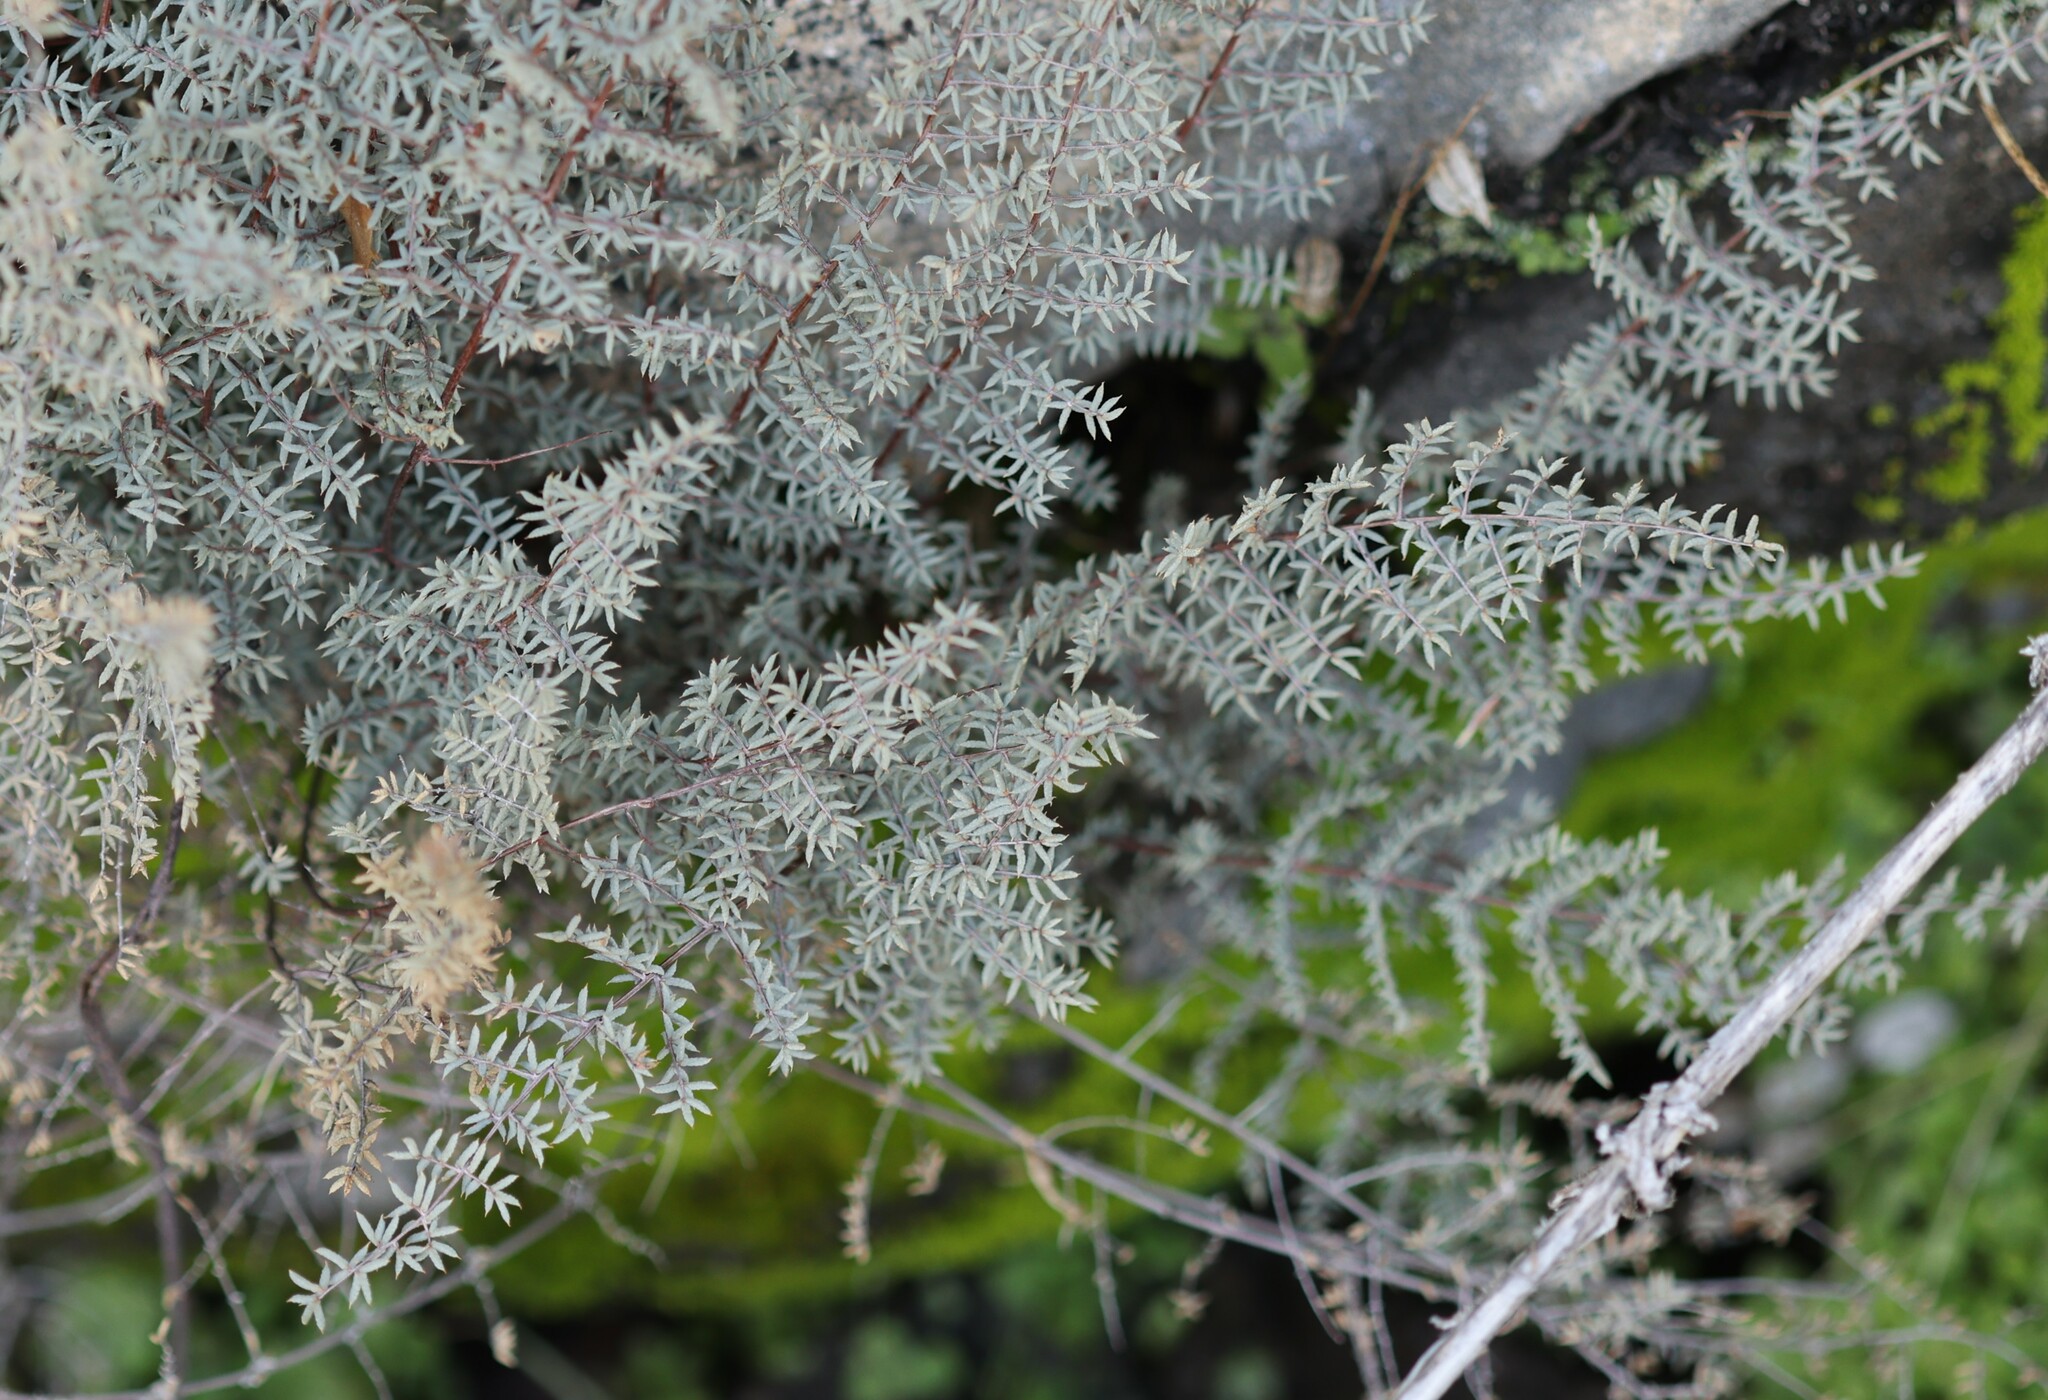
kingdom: Plantae
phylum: Tracheophyta
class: Polypodiopsida
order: Polypodiales
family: Pteridaceae
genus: Pellaea
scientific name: Pellaea mucronata
